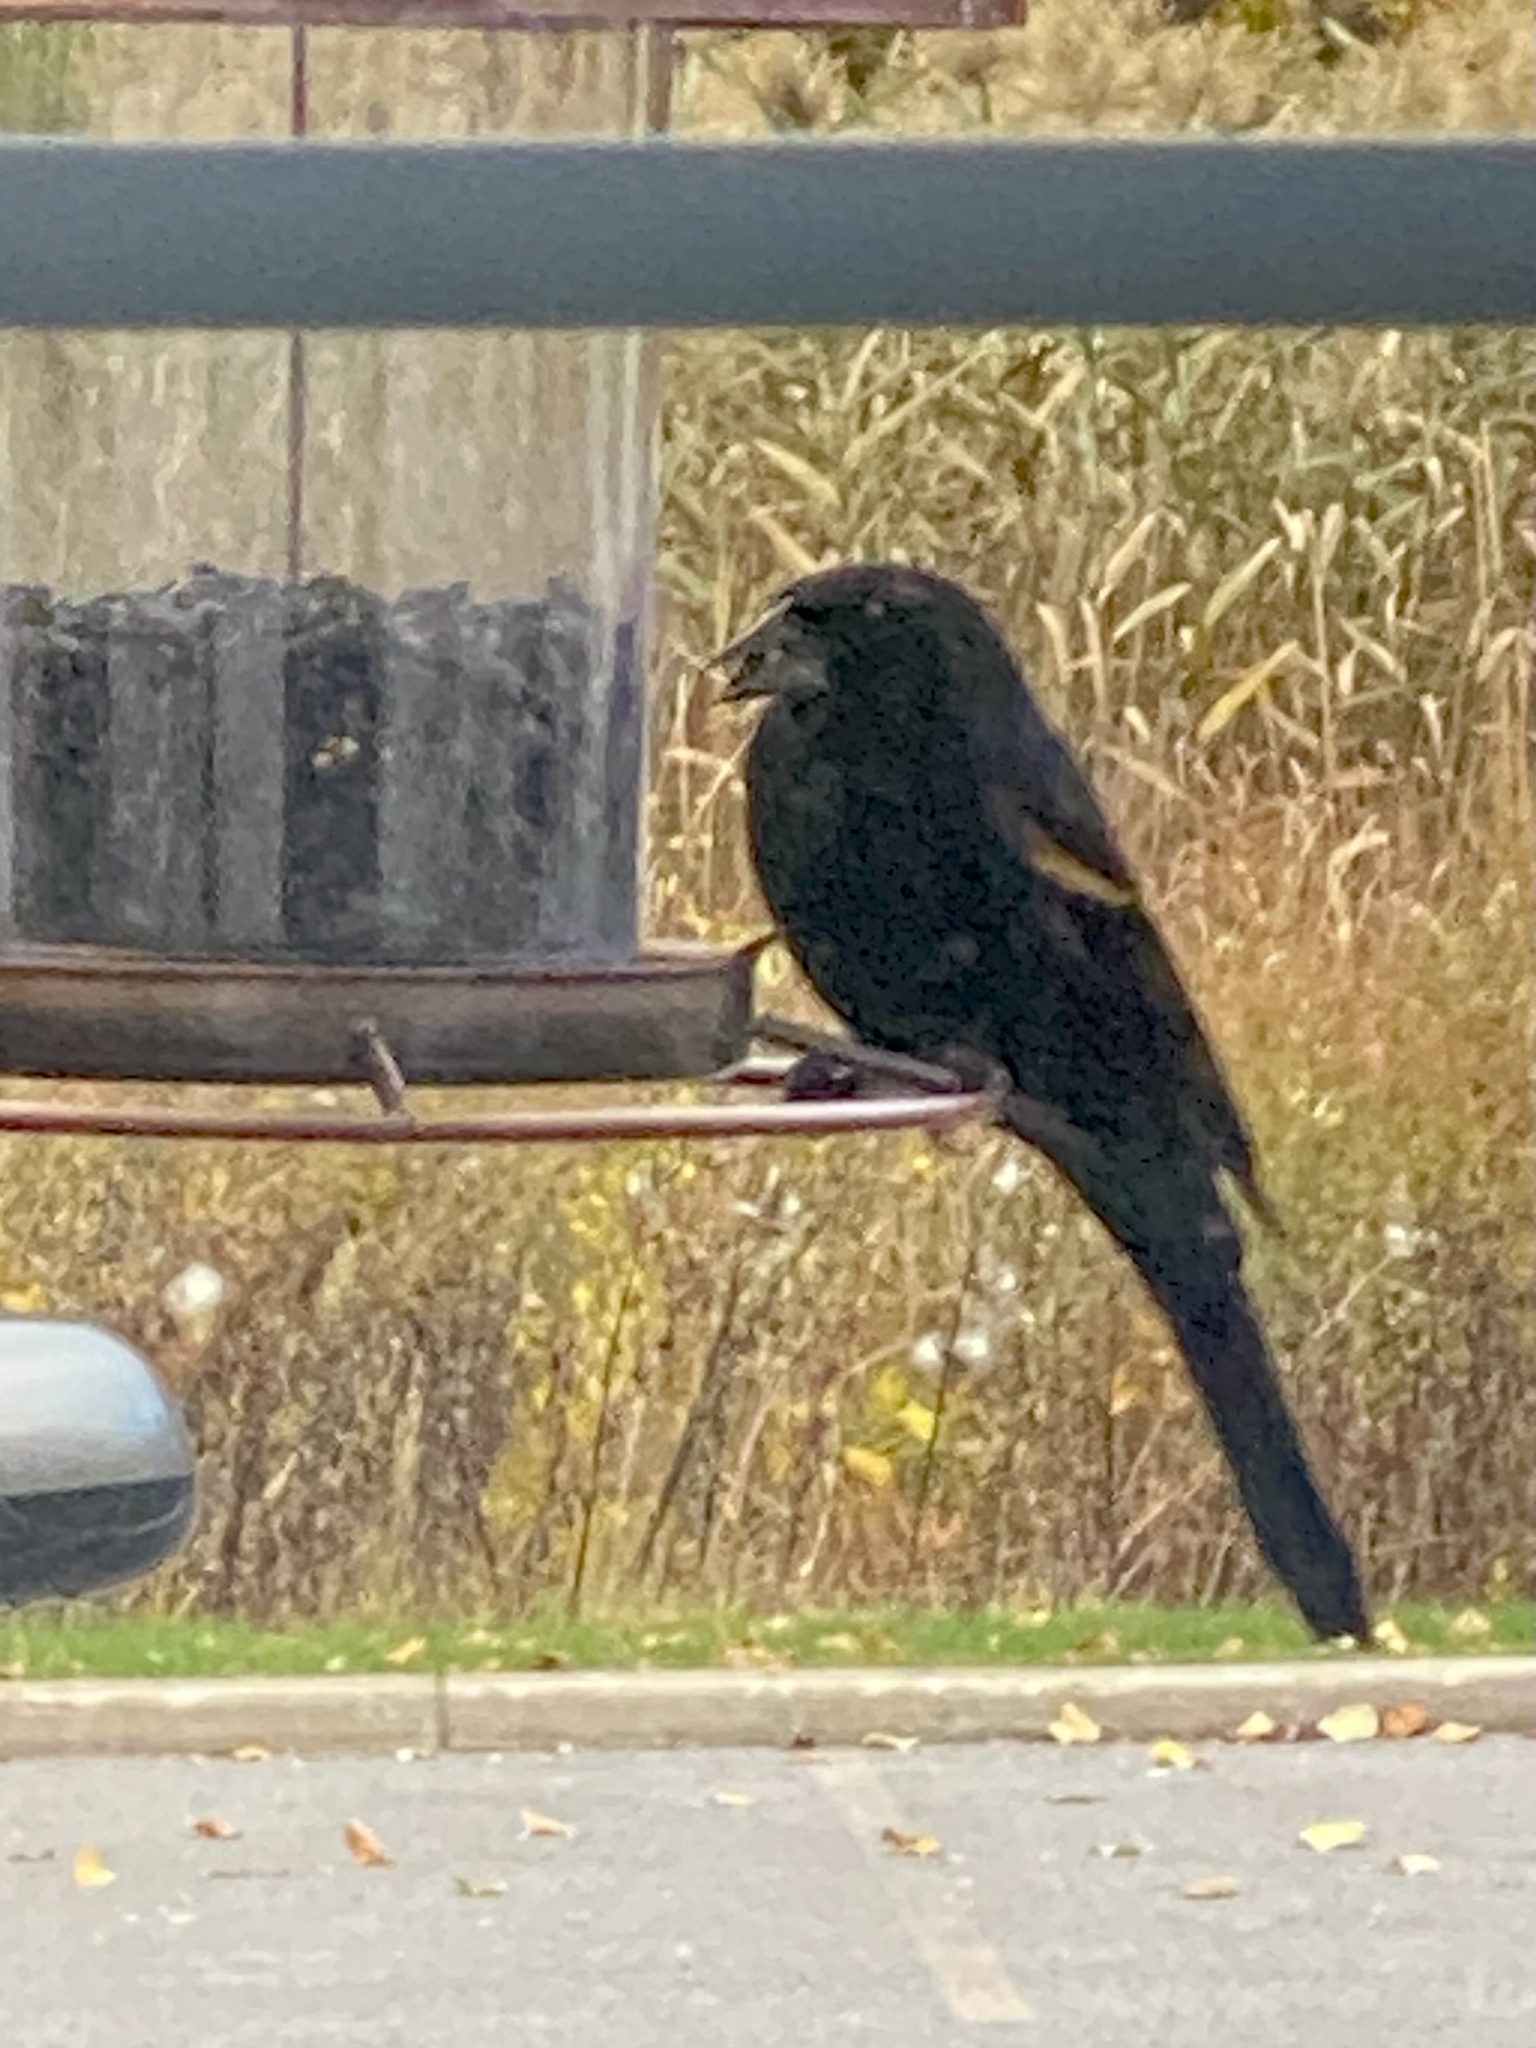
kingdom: Animalia
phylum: Chordata
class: Aves
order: Passeriformes
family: Icteridae
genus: Agelaius
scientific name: Agelaius phoeniceus
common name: Red-winged blackbird
